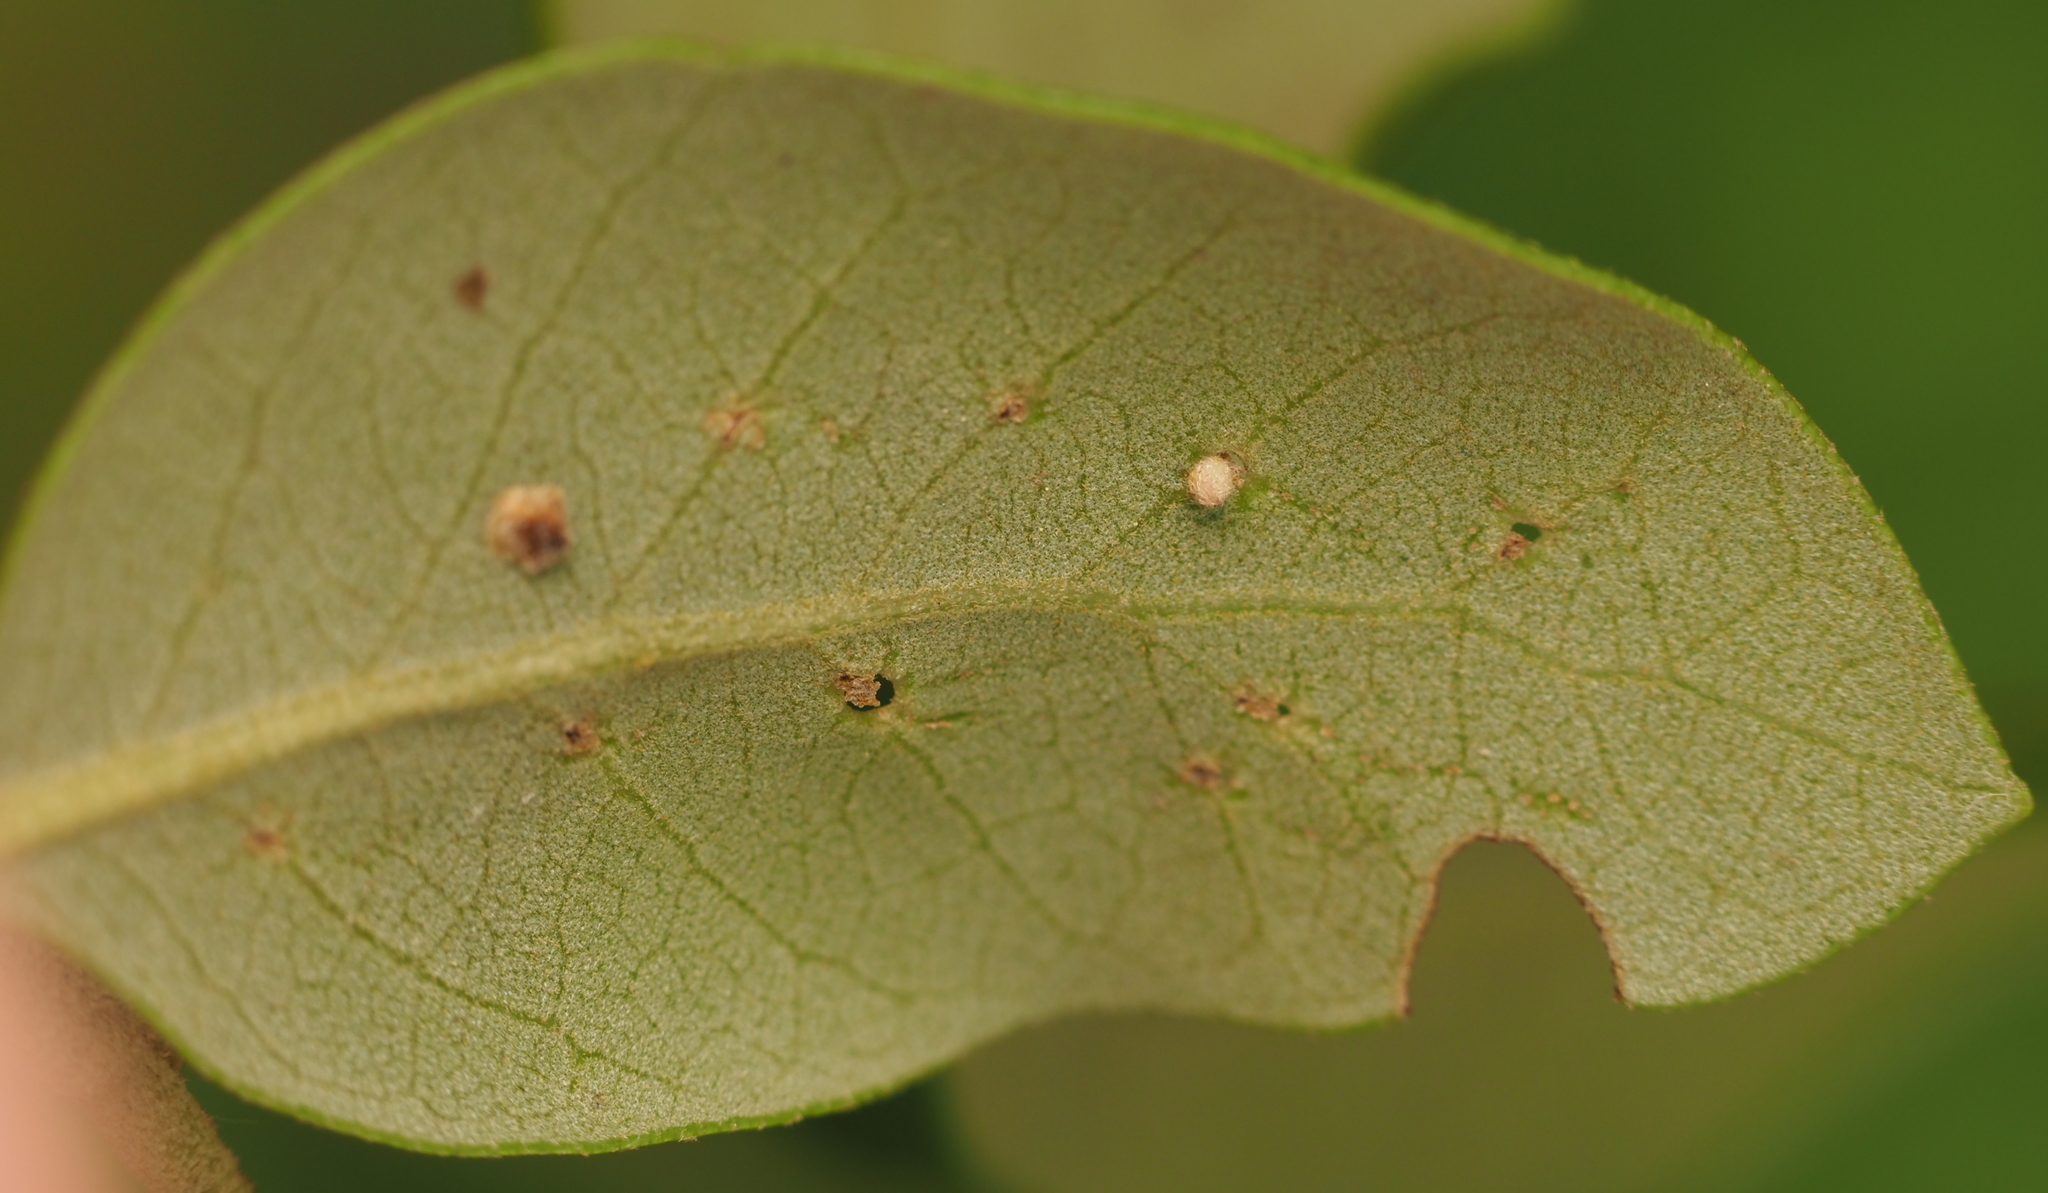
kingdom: Animalia
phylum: Arthropoda
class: Insecta
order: Hymenoptera
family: Cynipidae
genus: Belonocnema
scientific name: Belonocnema kinseyi
